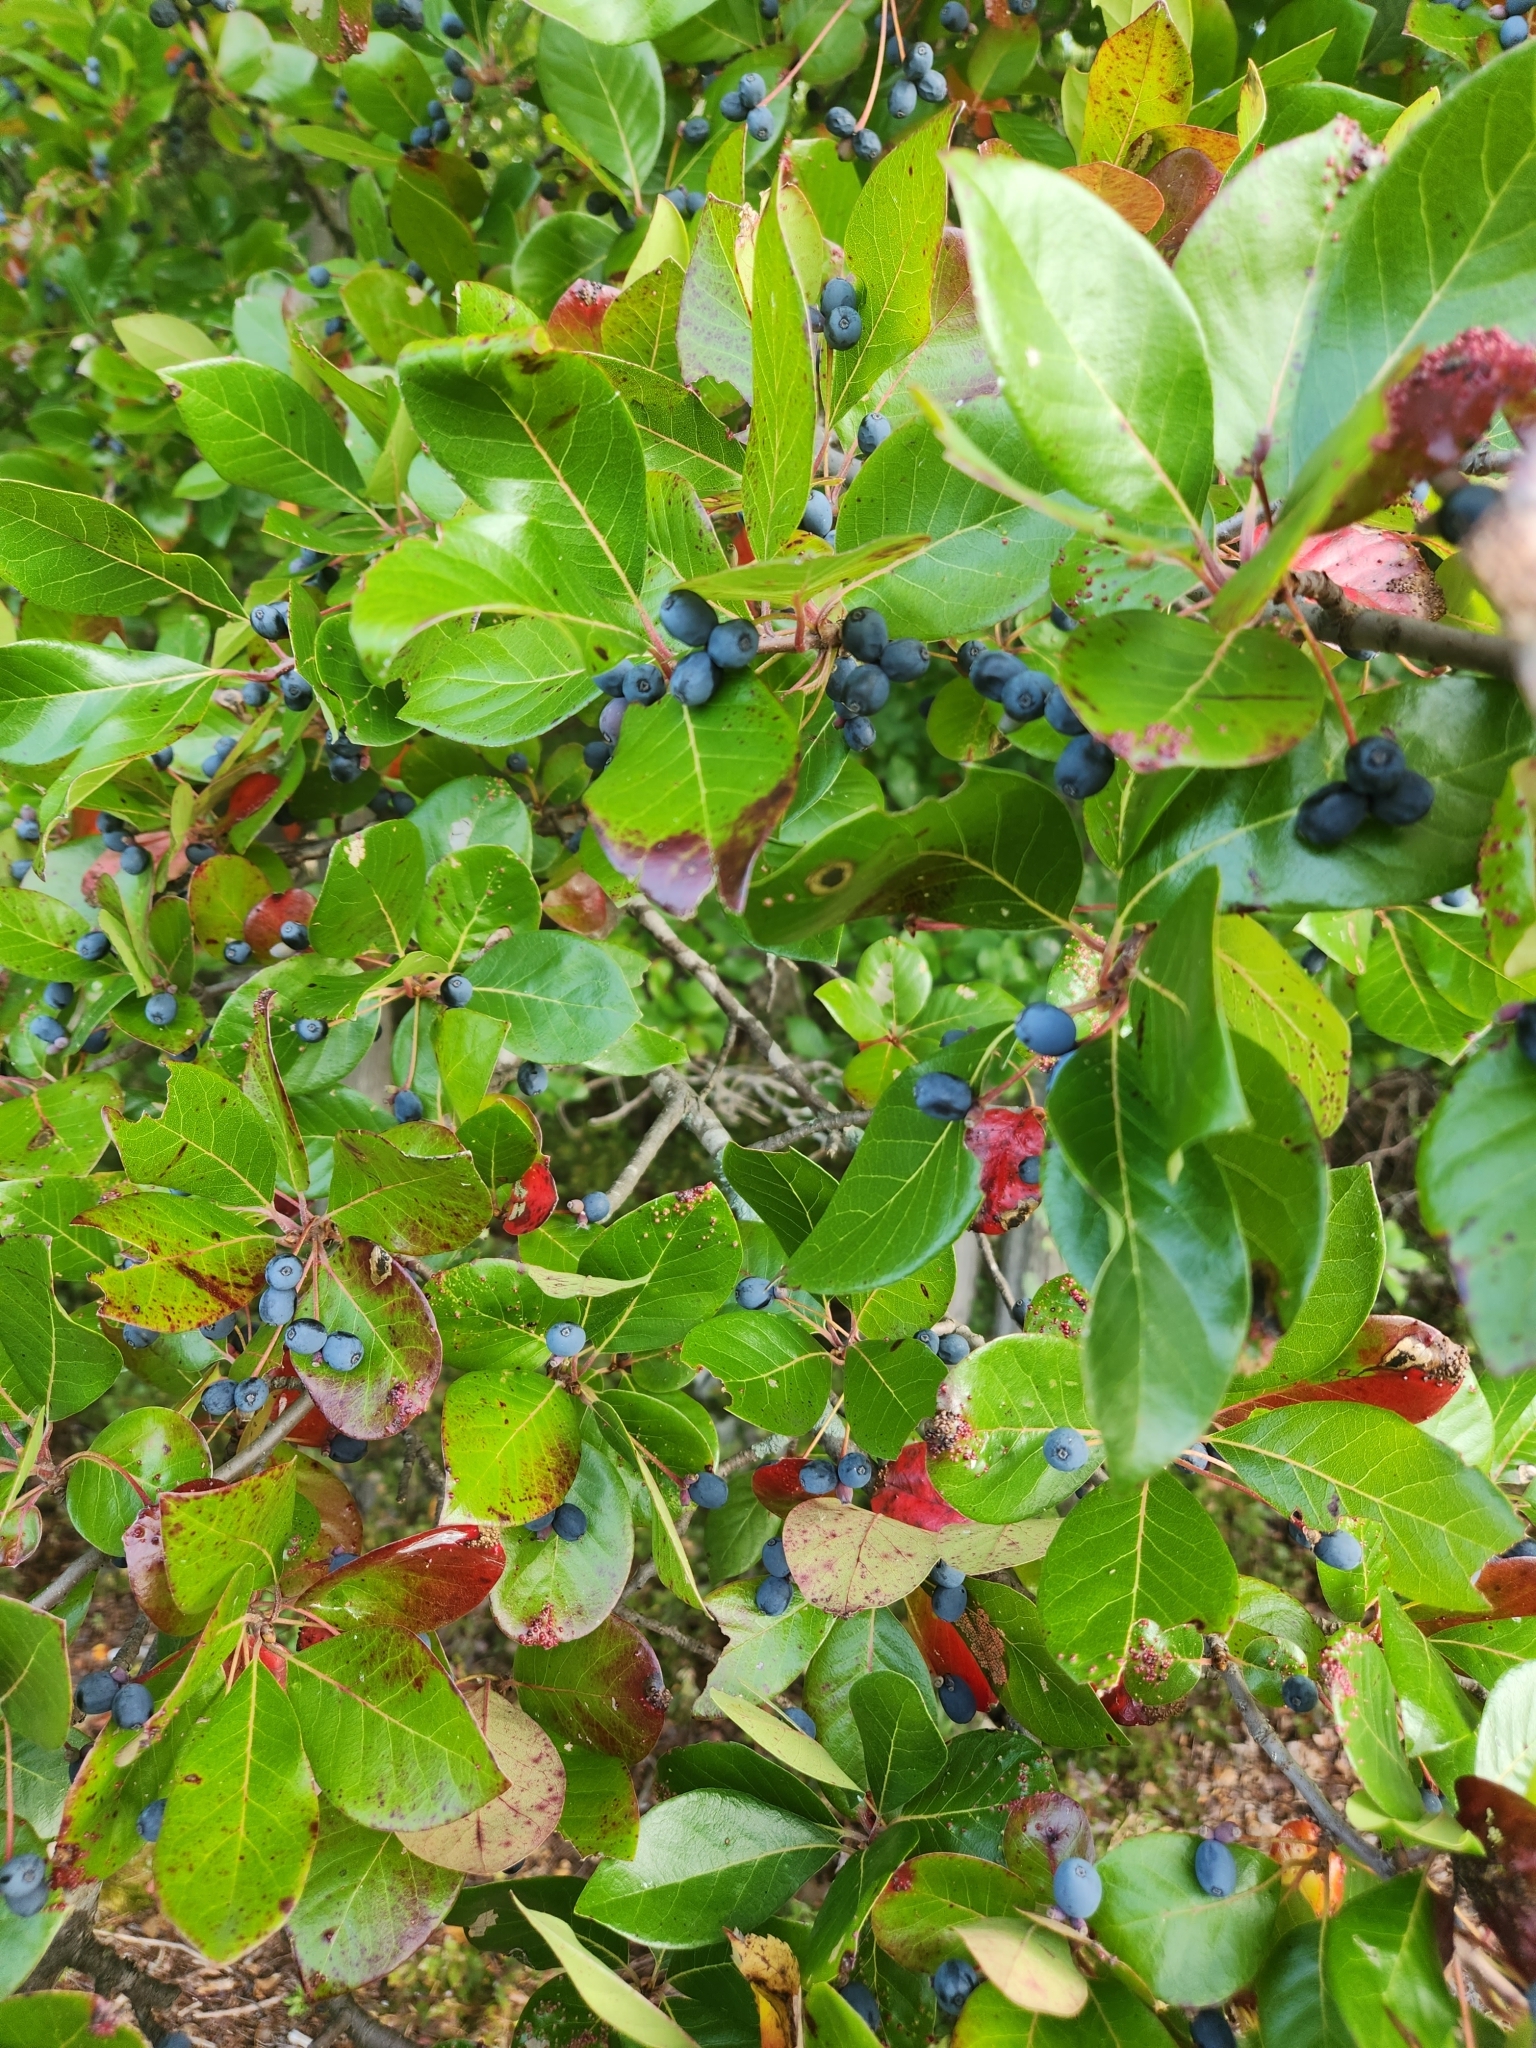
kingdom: Plantae
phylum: Tracheophyta
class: Magnoliopsida
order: Cornales
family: Nyssaceae
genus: Nyssa
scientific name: Nyssa sylvatica
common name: Black tupelo
